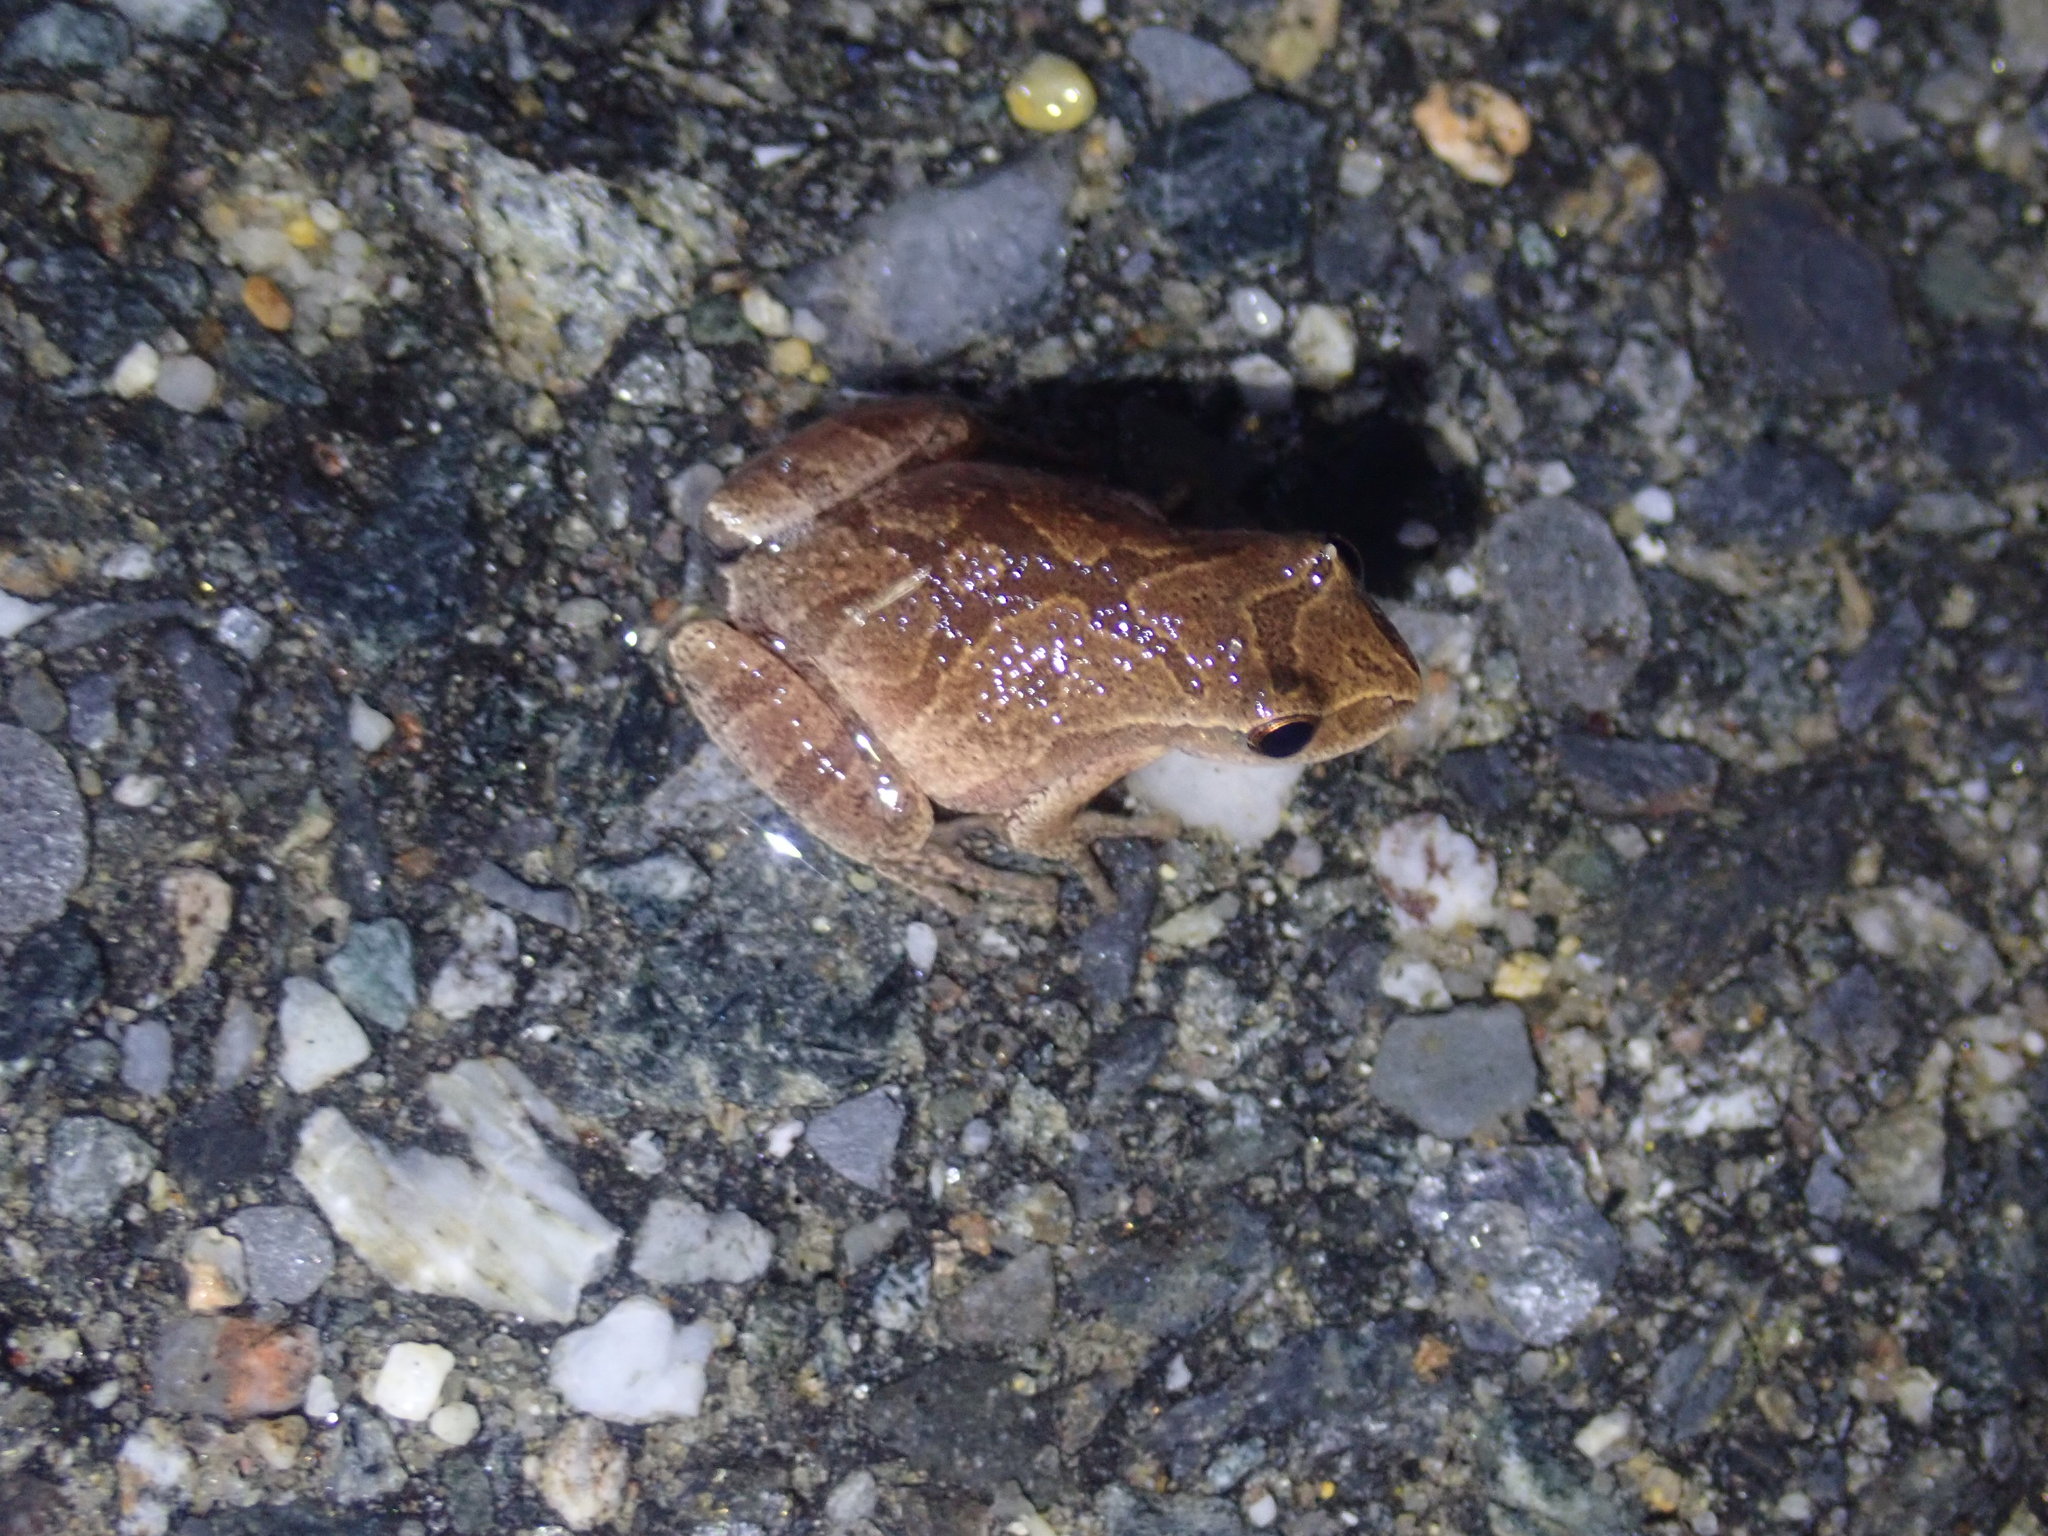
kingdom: Animalia
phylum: Chordata
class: Amphibia
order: Anura
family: Hylidae
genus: Pseudacris
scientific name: Pseudacris crucifer
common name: Spring peeper
